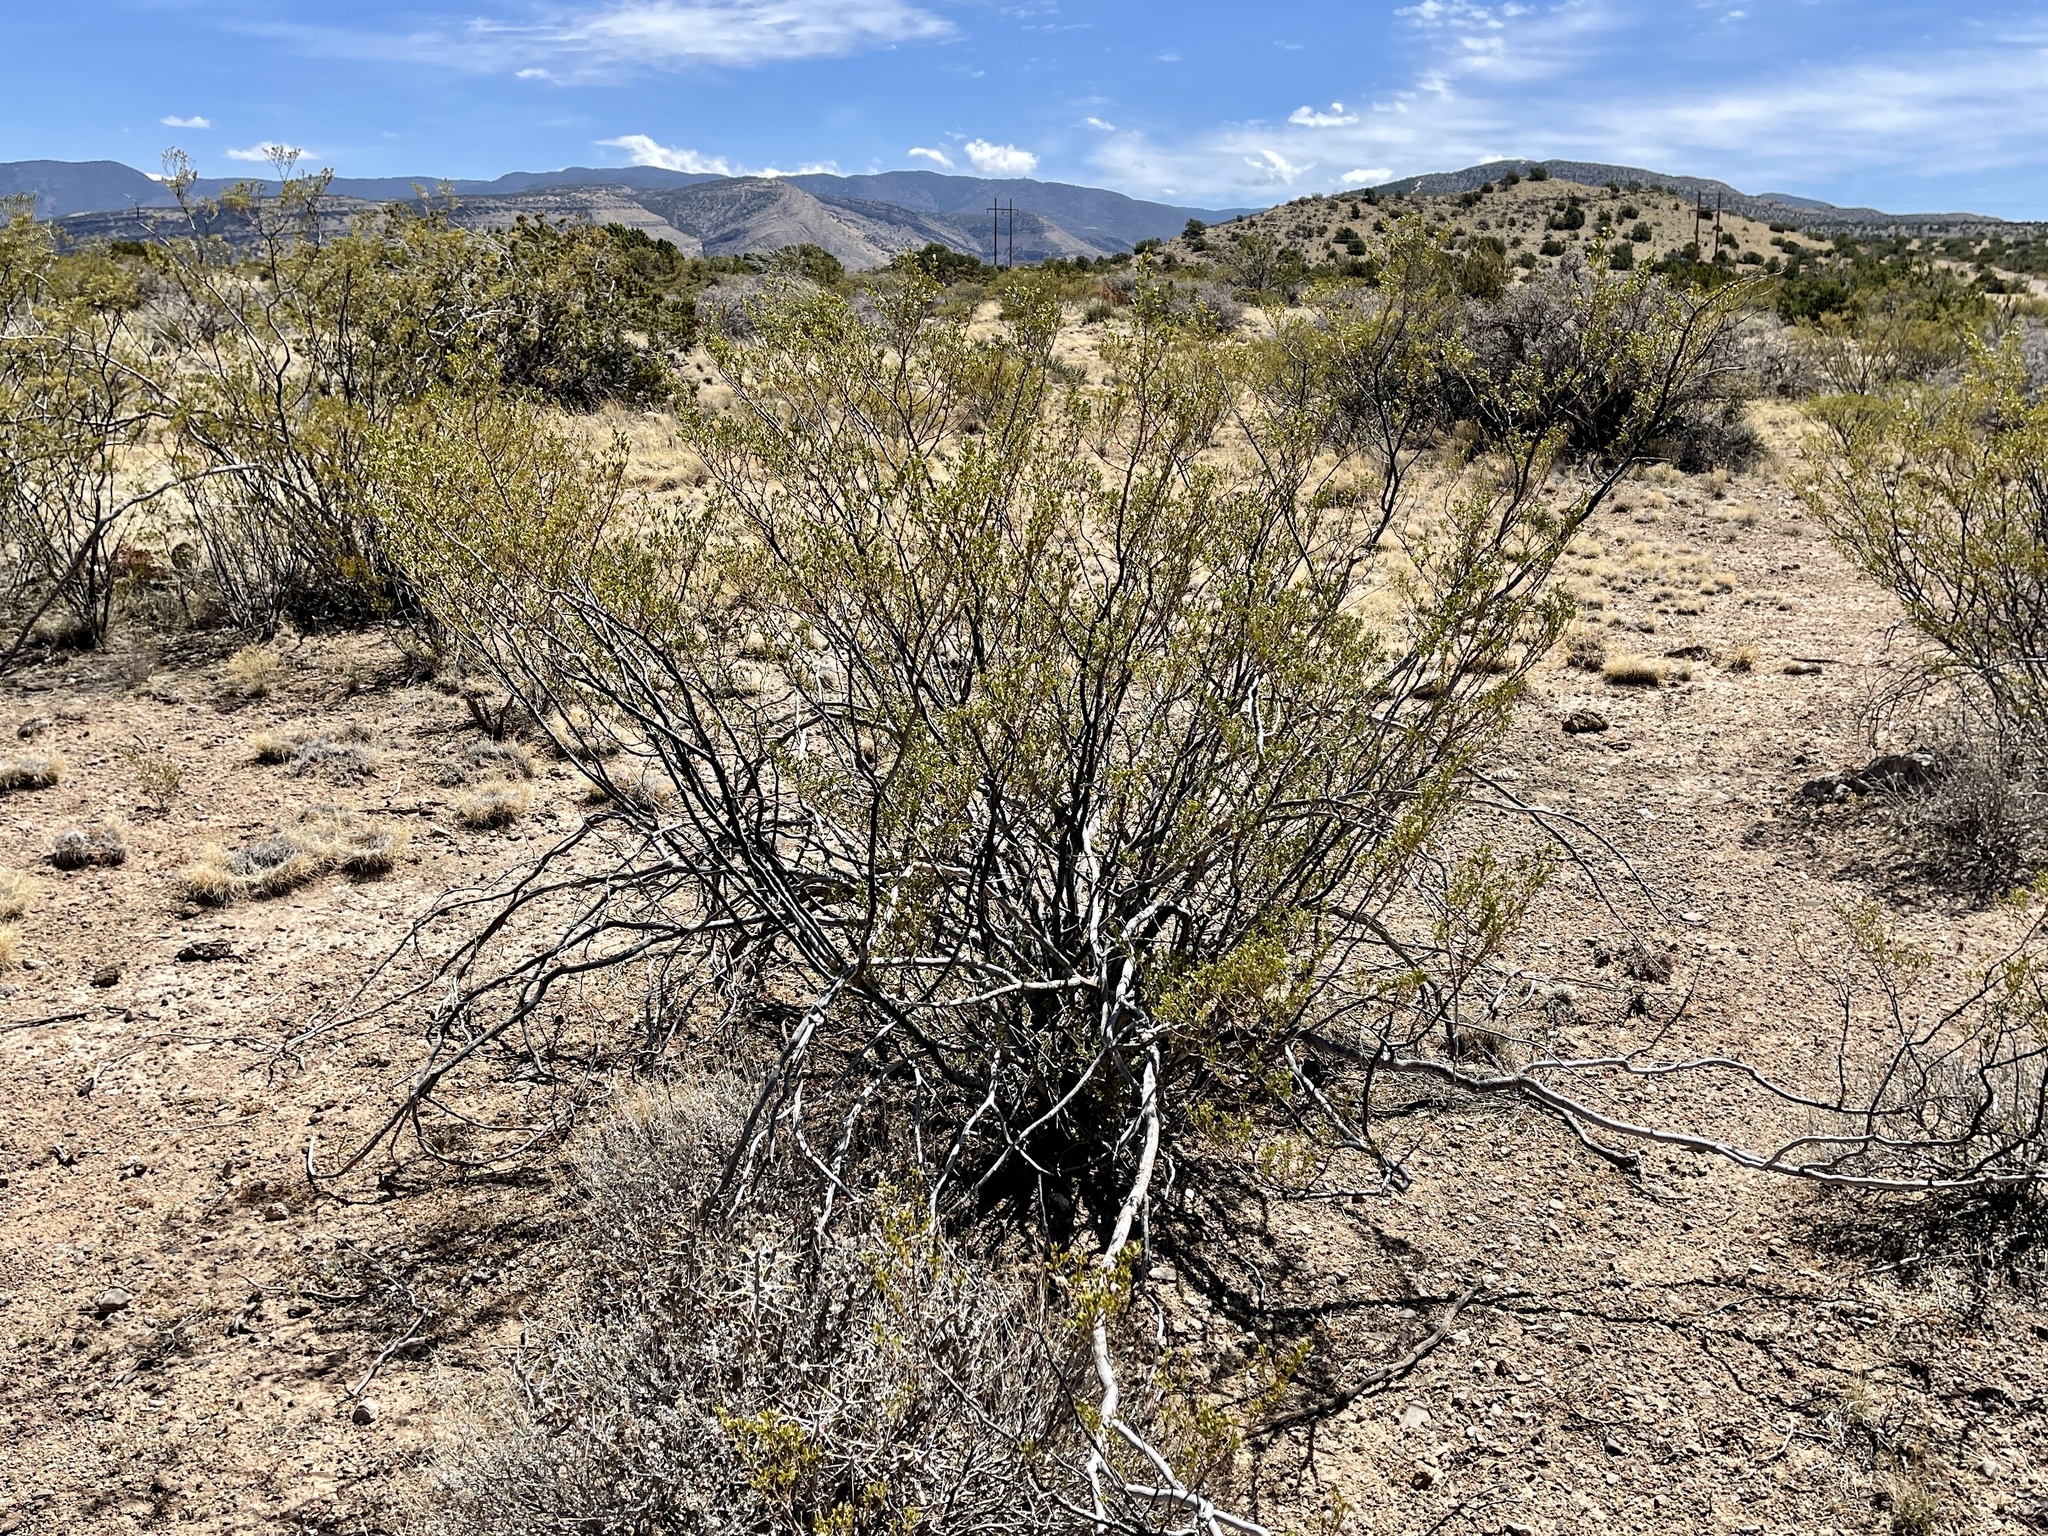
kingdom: Plantae
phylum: Tracheophyta
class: Magnoliopsida
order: Zygophyllales
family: Zygophyllaceae
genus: Larrea
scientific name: Larrea tridentata
